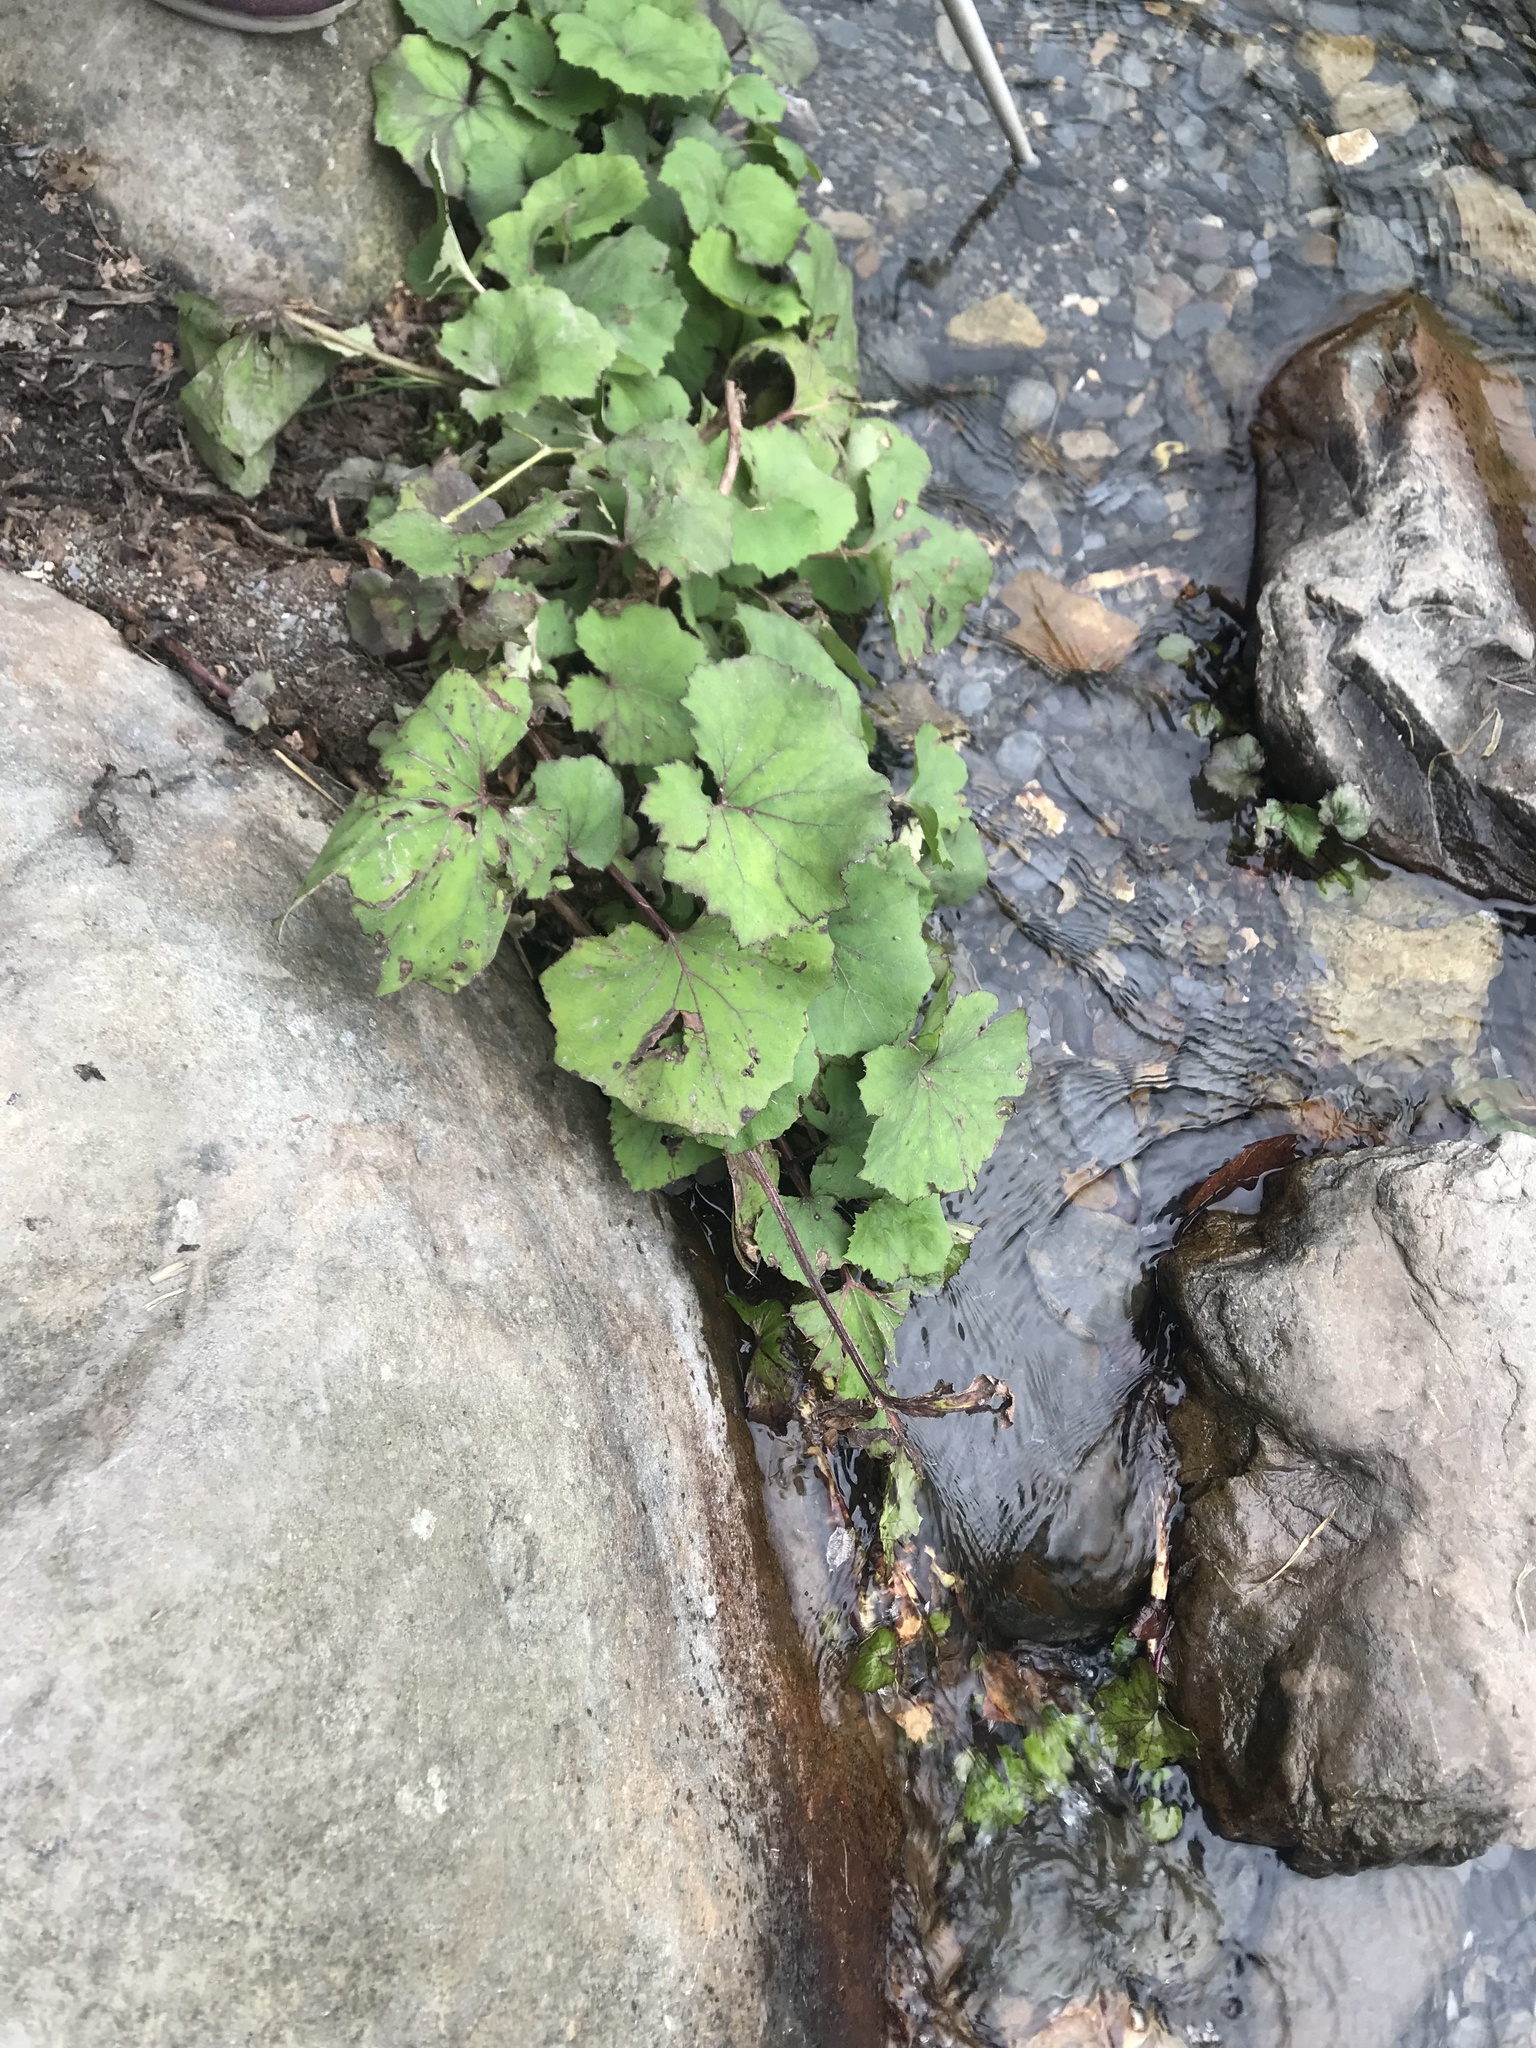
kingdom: Plantae
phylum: Tracheophyta
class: Magnoliopsida
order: Asterales
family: Asteraceae
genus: Petasites
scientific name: Petasites formosanus
